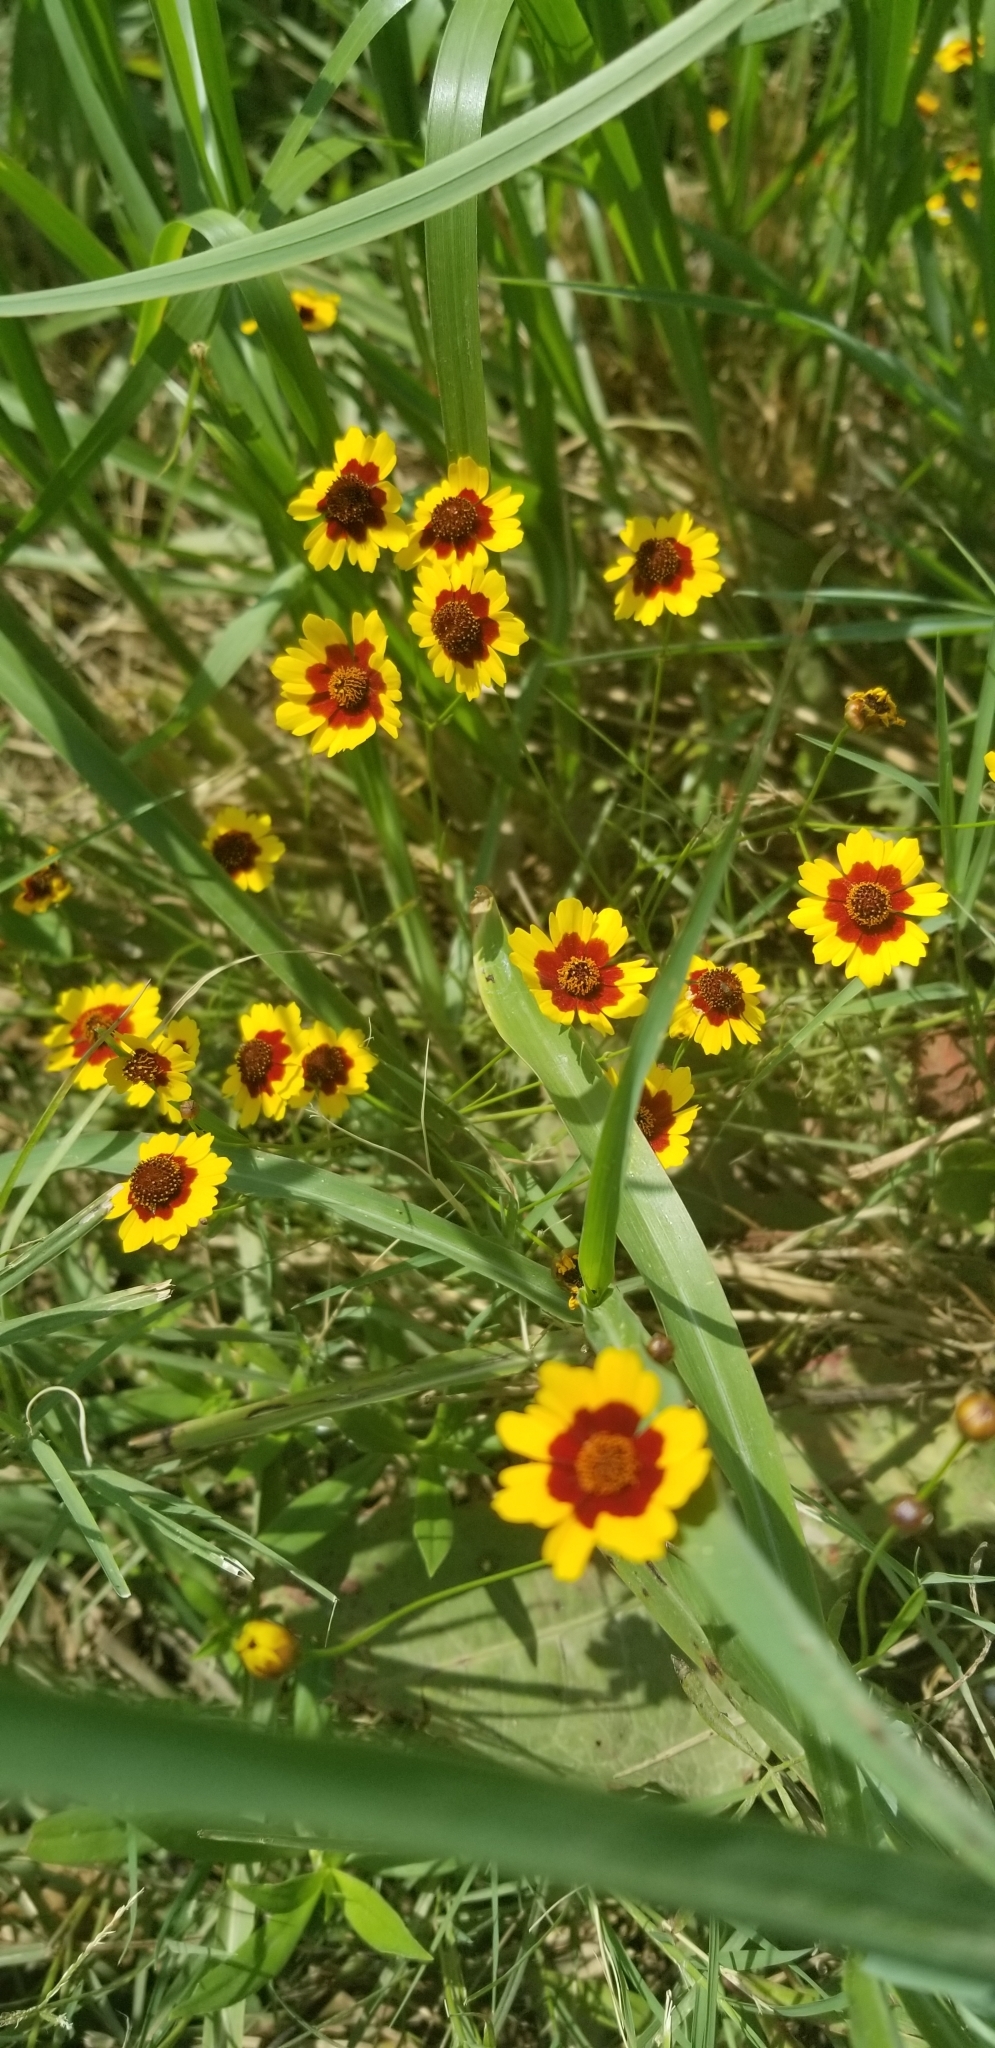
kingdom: Plantae
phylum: Tracheophyta
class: Magnoliopsida
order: Asterales
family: Asteraceae
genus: Coreopsis
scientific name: Coreopsis tinctoria
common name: Garden tickseed
